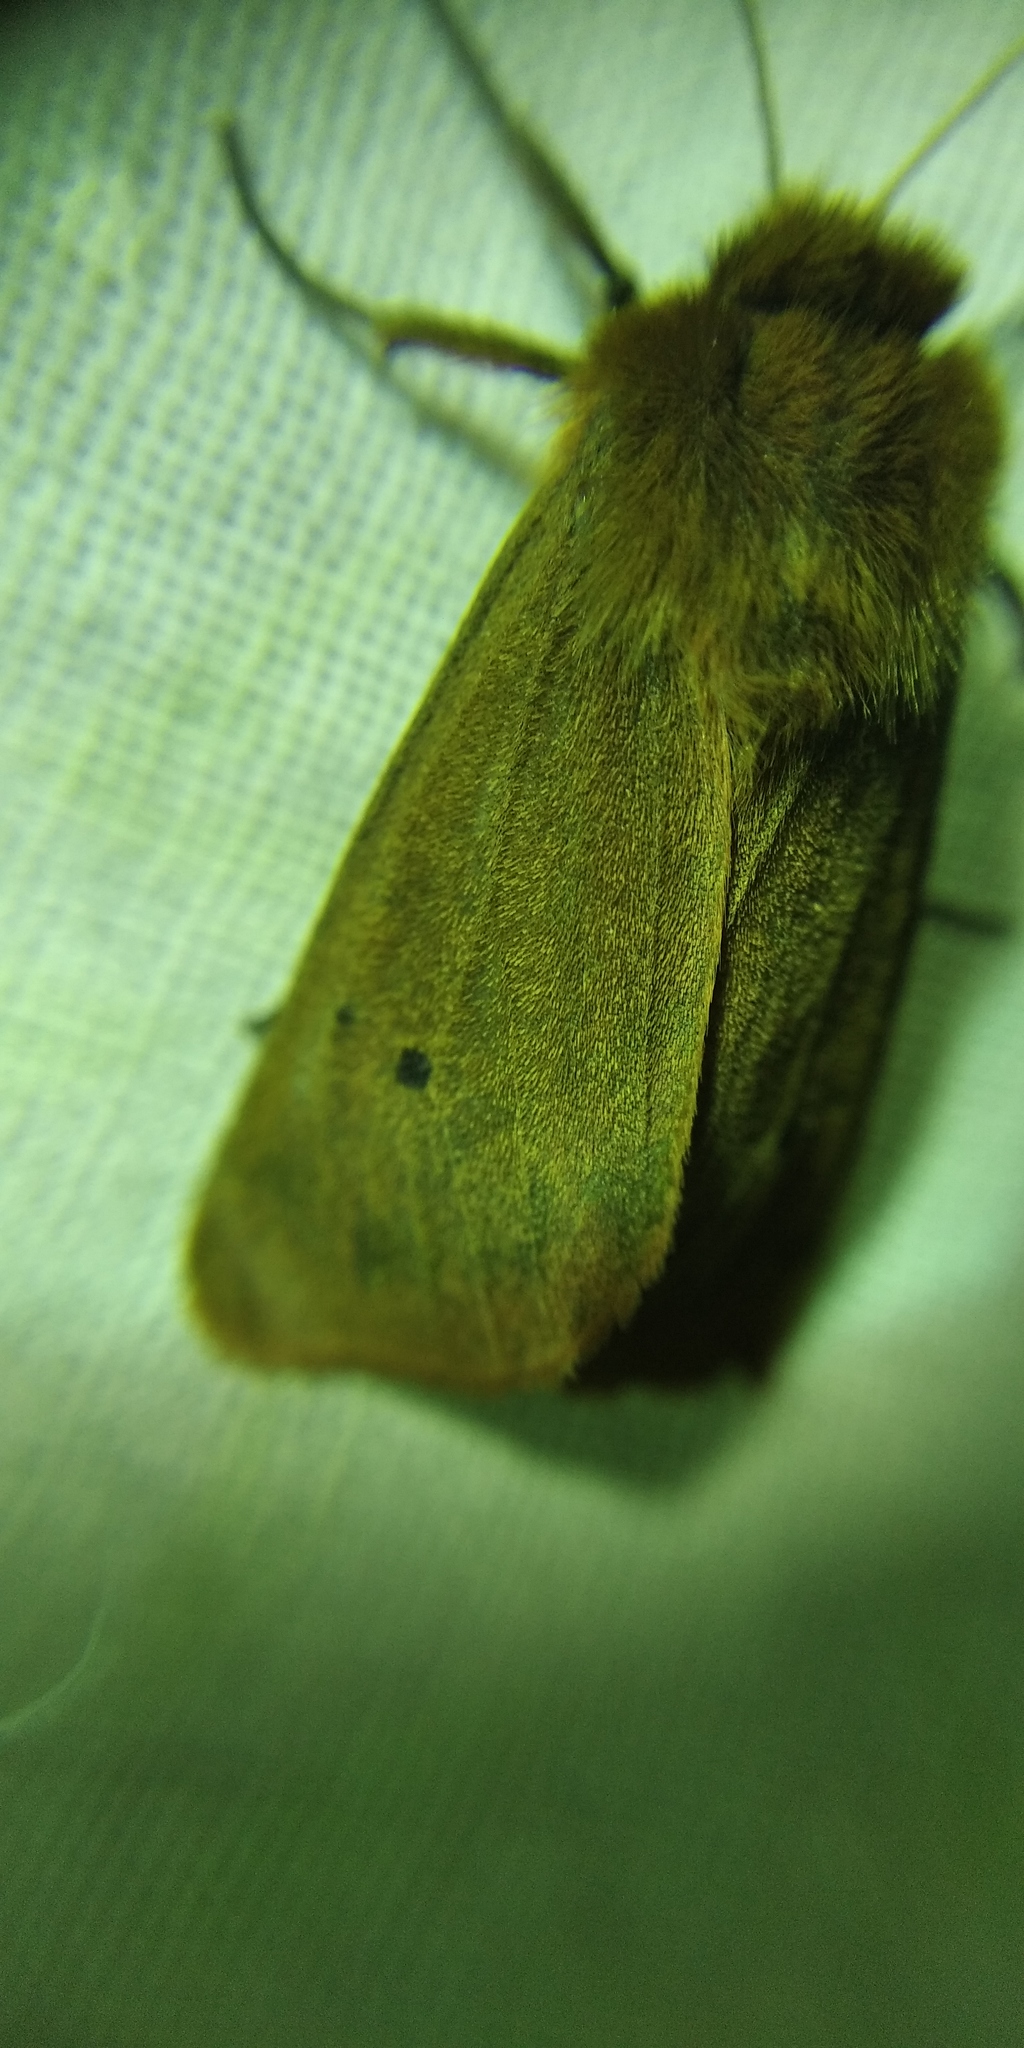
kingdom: Animalia
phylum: Arthropoda
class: Insecta
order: Lepidoptera
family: Erebidae
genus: Phragmatobia
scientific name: Phragmatobia fuliginosa
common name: Ruby tiger
